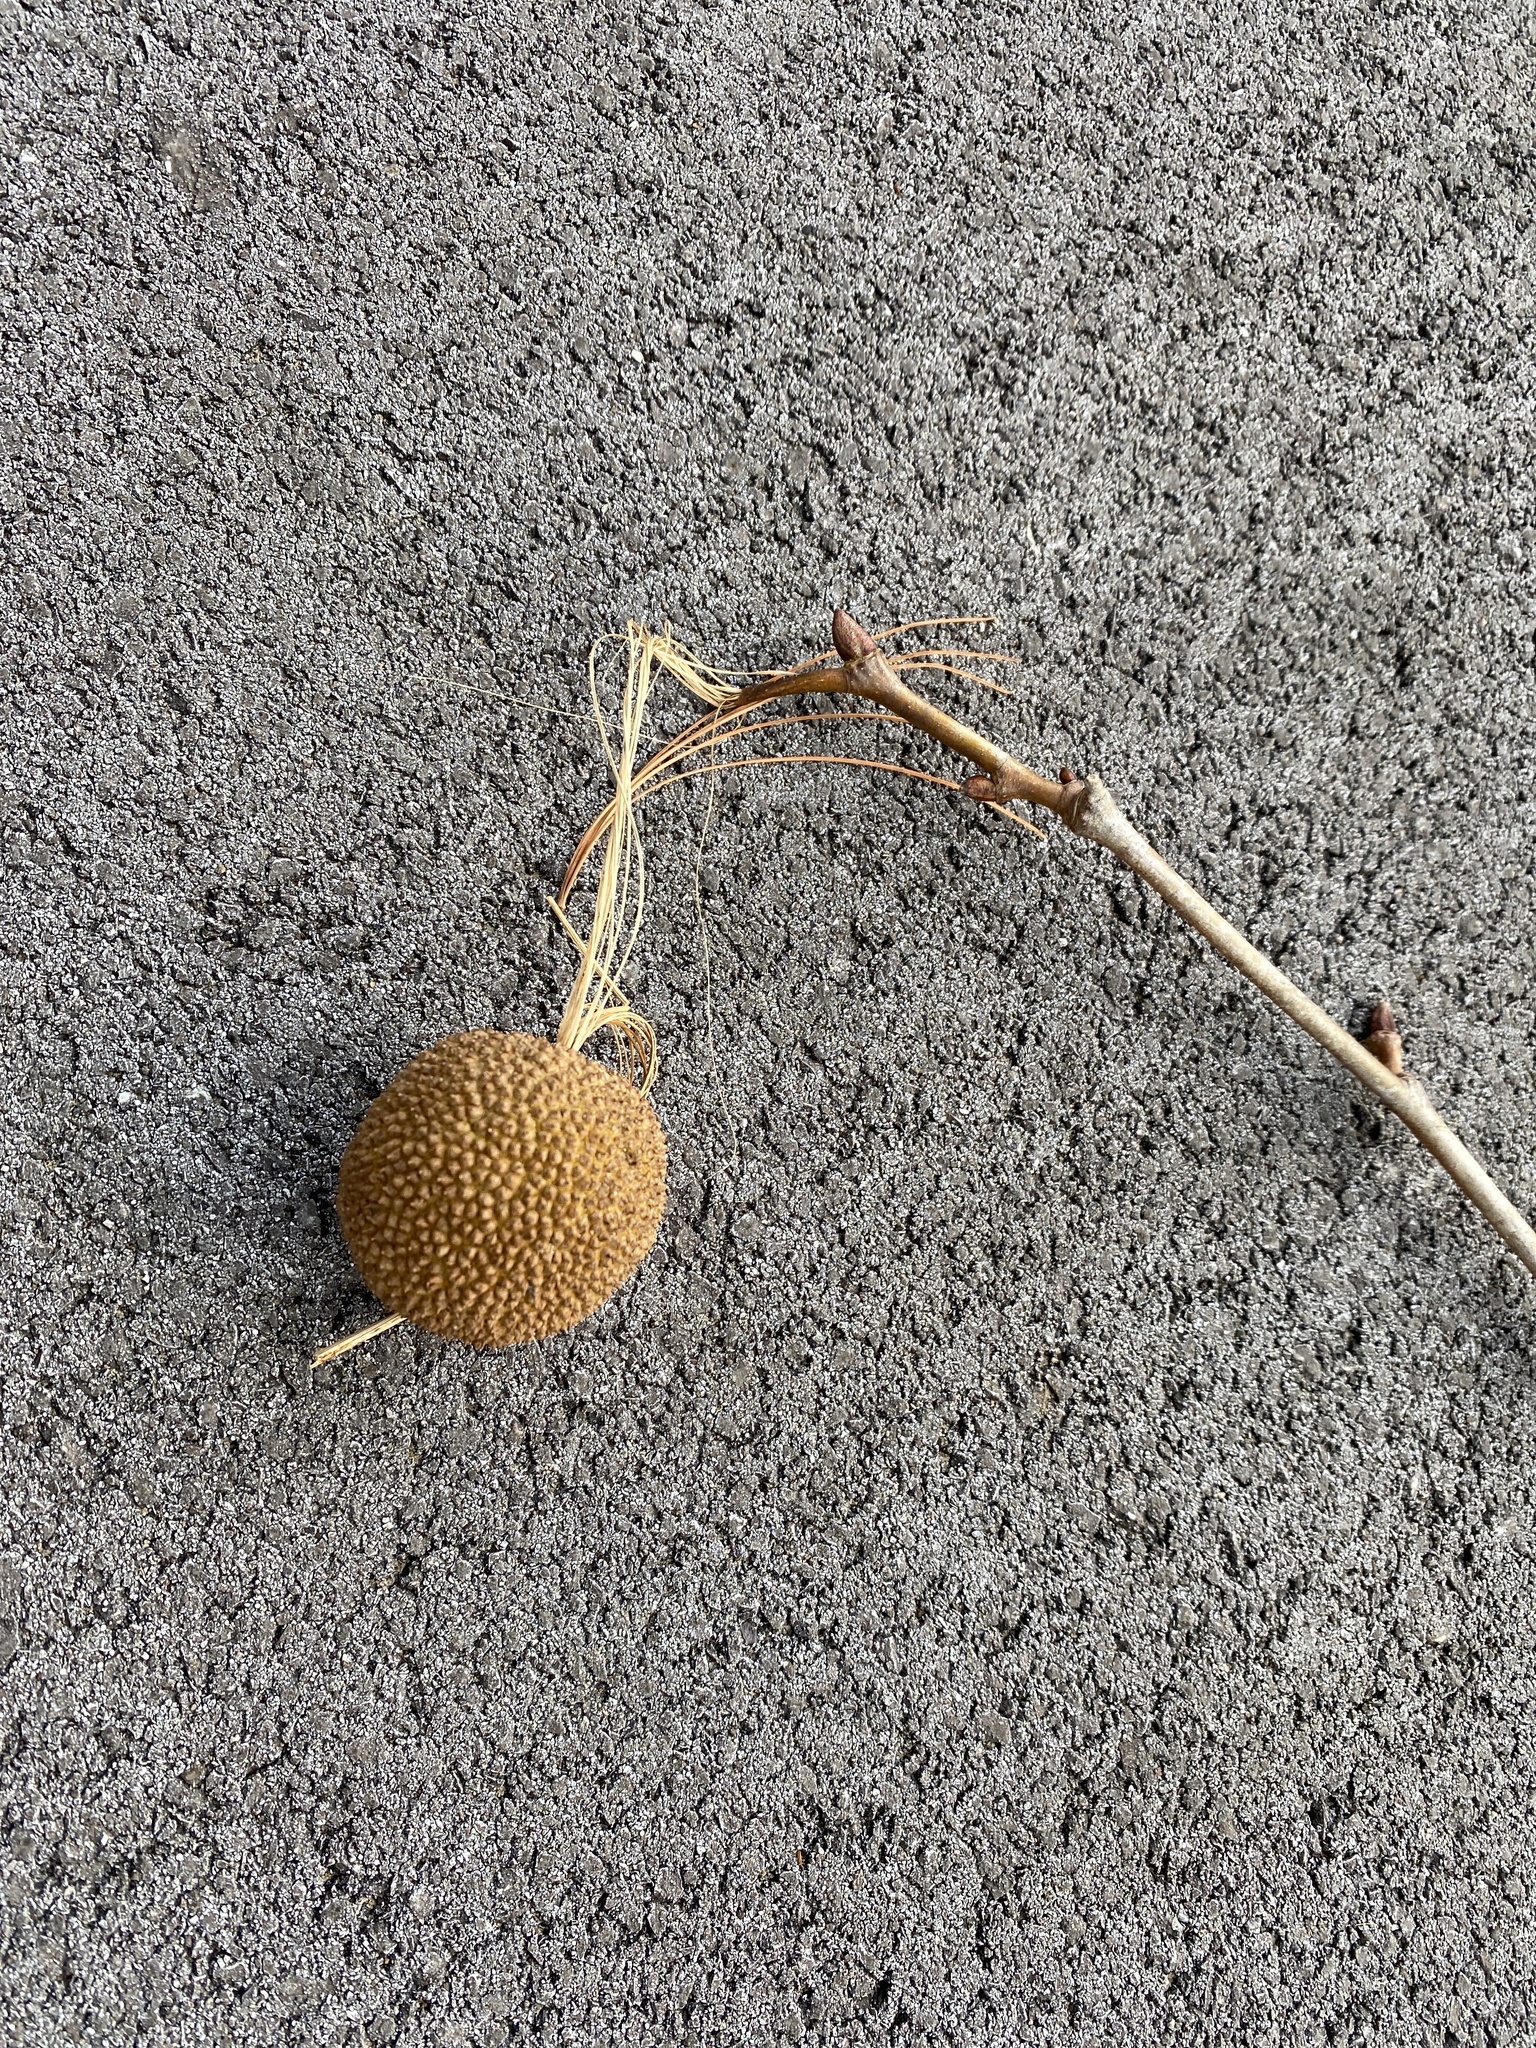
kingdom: Plantae
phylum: Tracheophyta
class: Magnoliopsida
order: Proteales
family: Platanaceae
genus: Platanus
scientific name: Platanus occidentalis
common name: American sycamore
